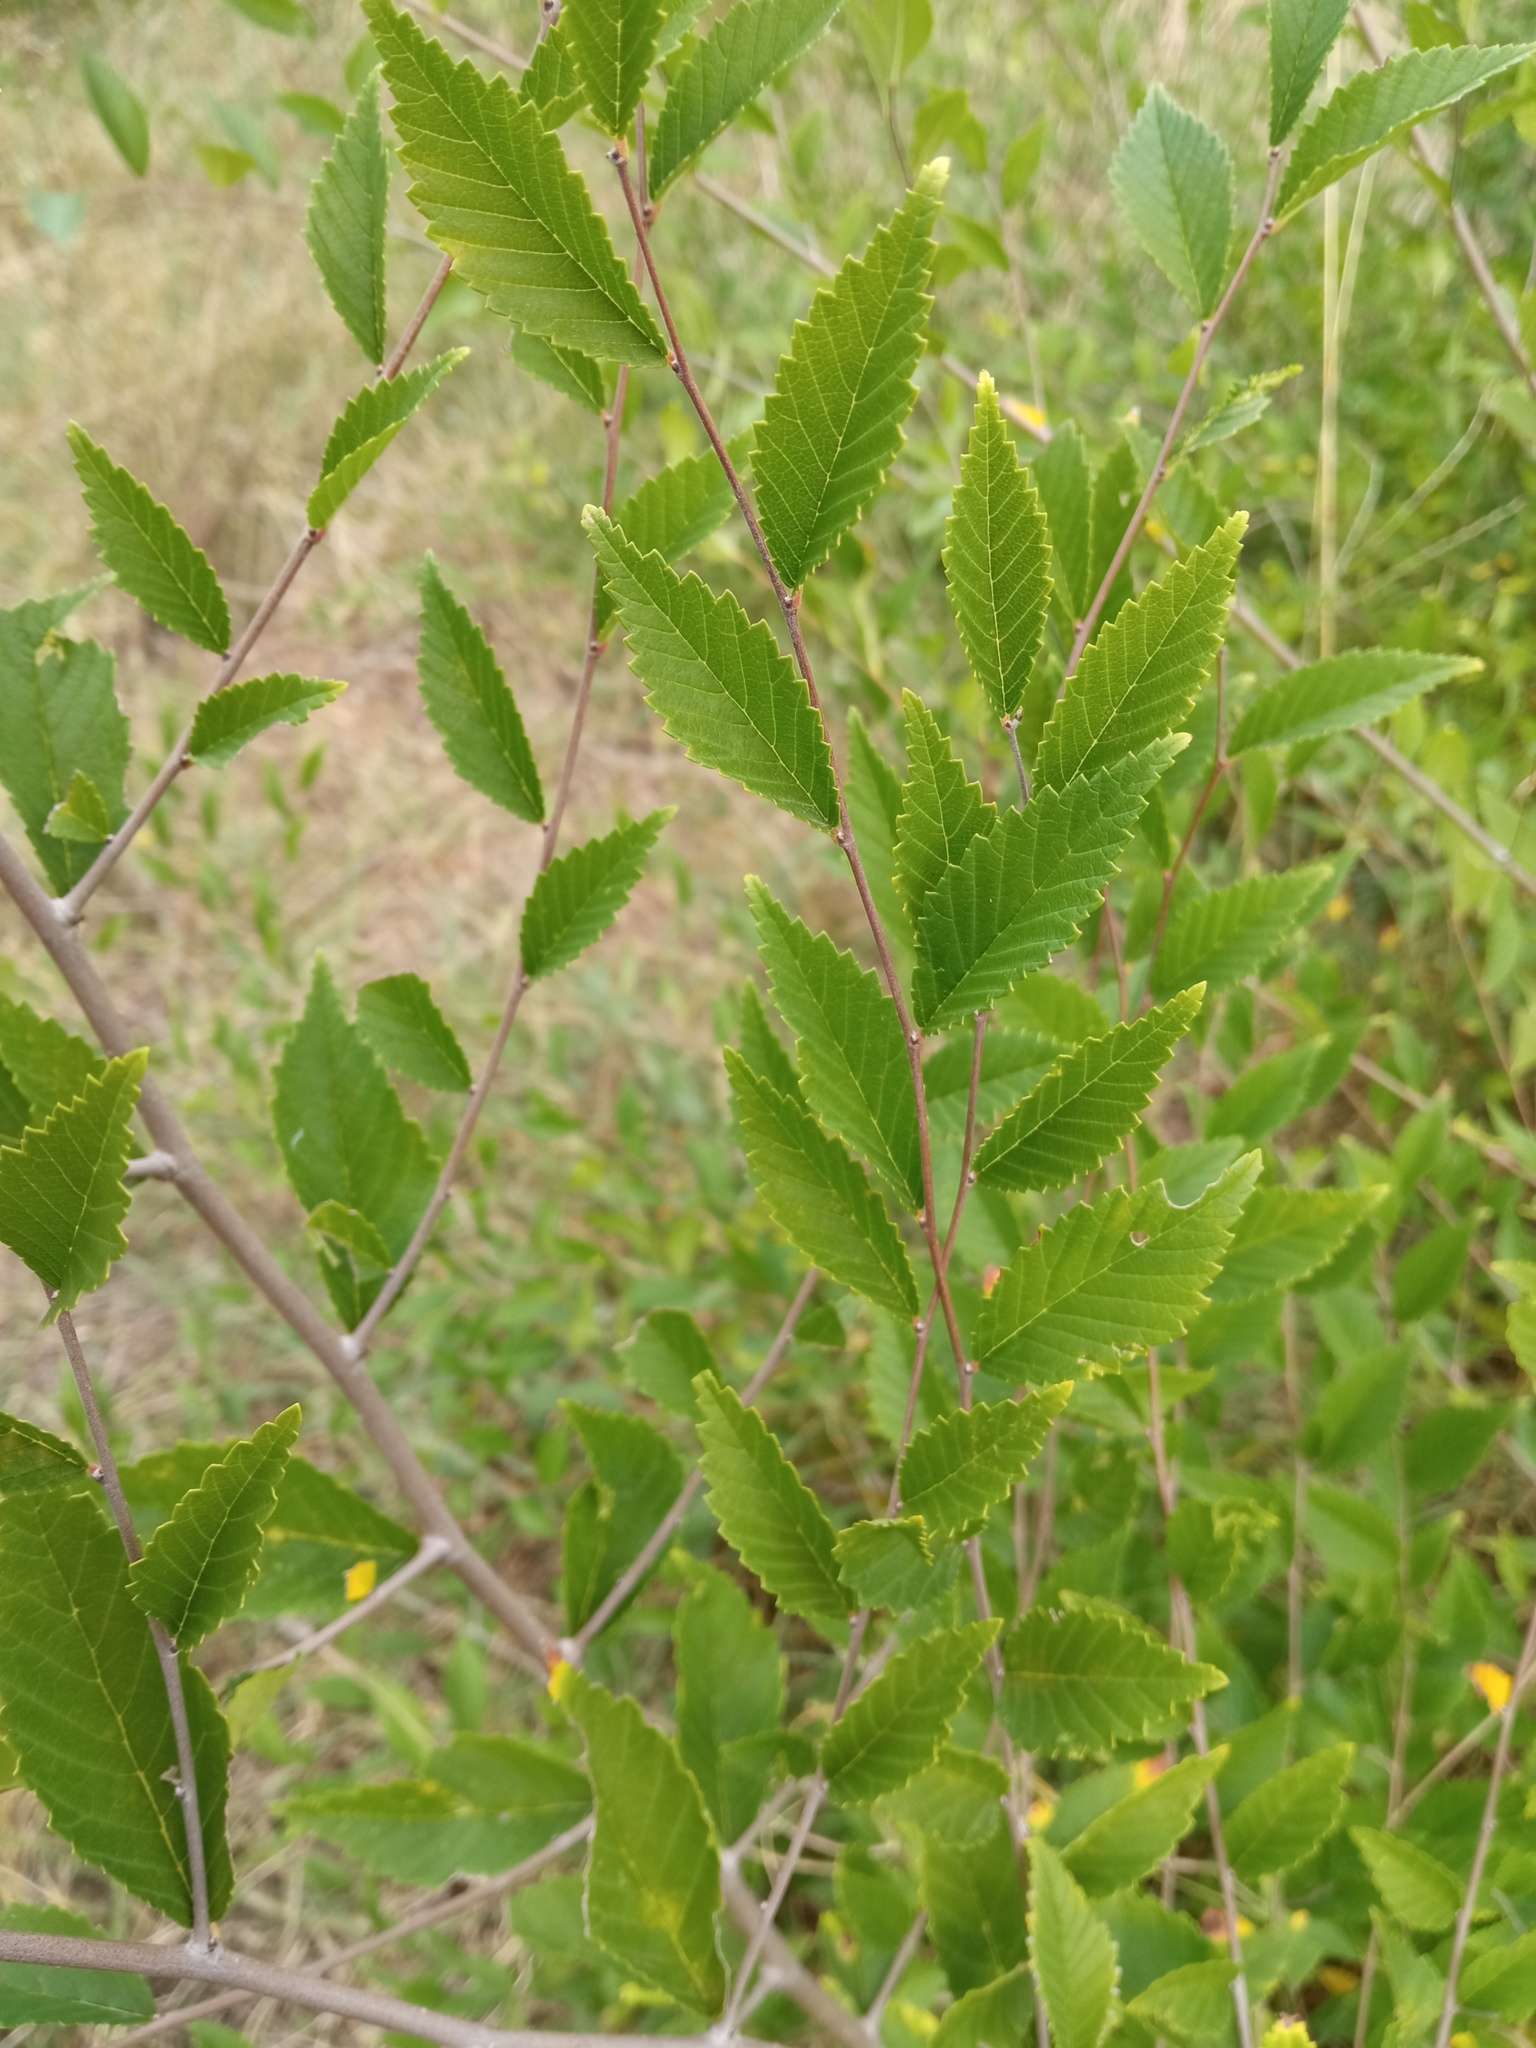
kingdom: Plantae
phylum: Tracheophyta
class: Magnoliopsida
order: Rosales
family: Ulmaceae
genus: Ulmus
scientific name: Ulmus pumila
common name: Siberian elm
